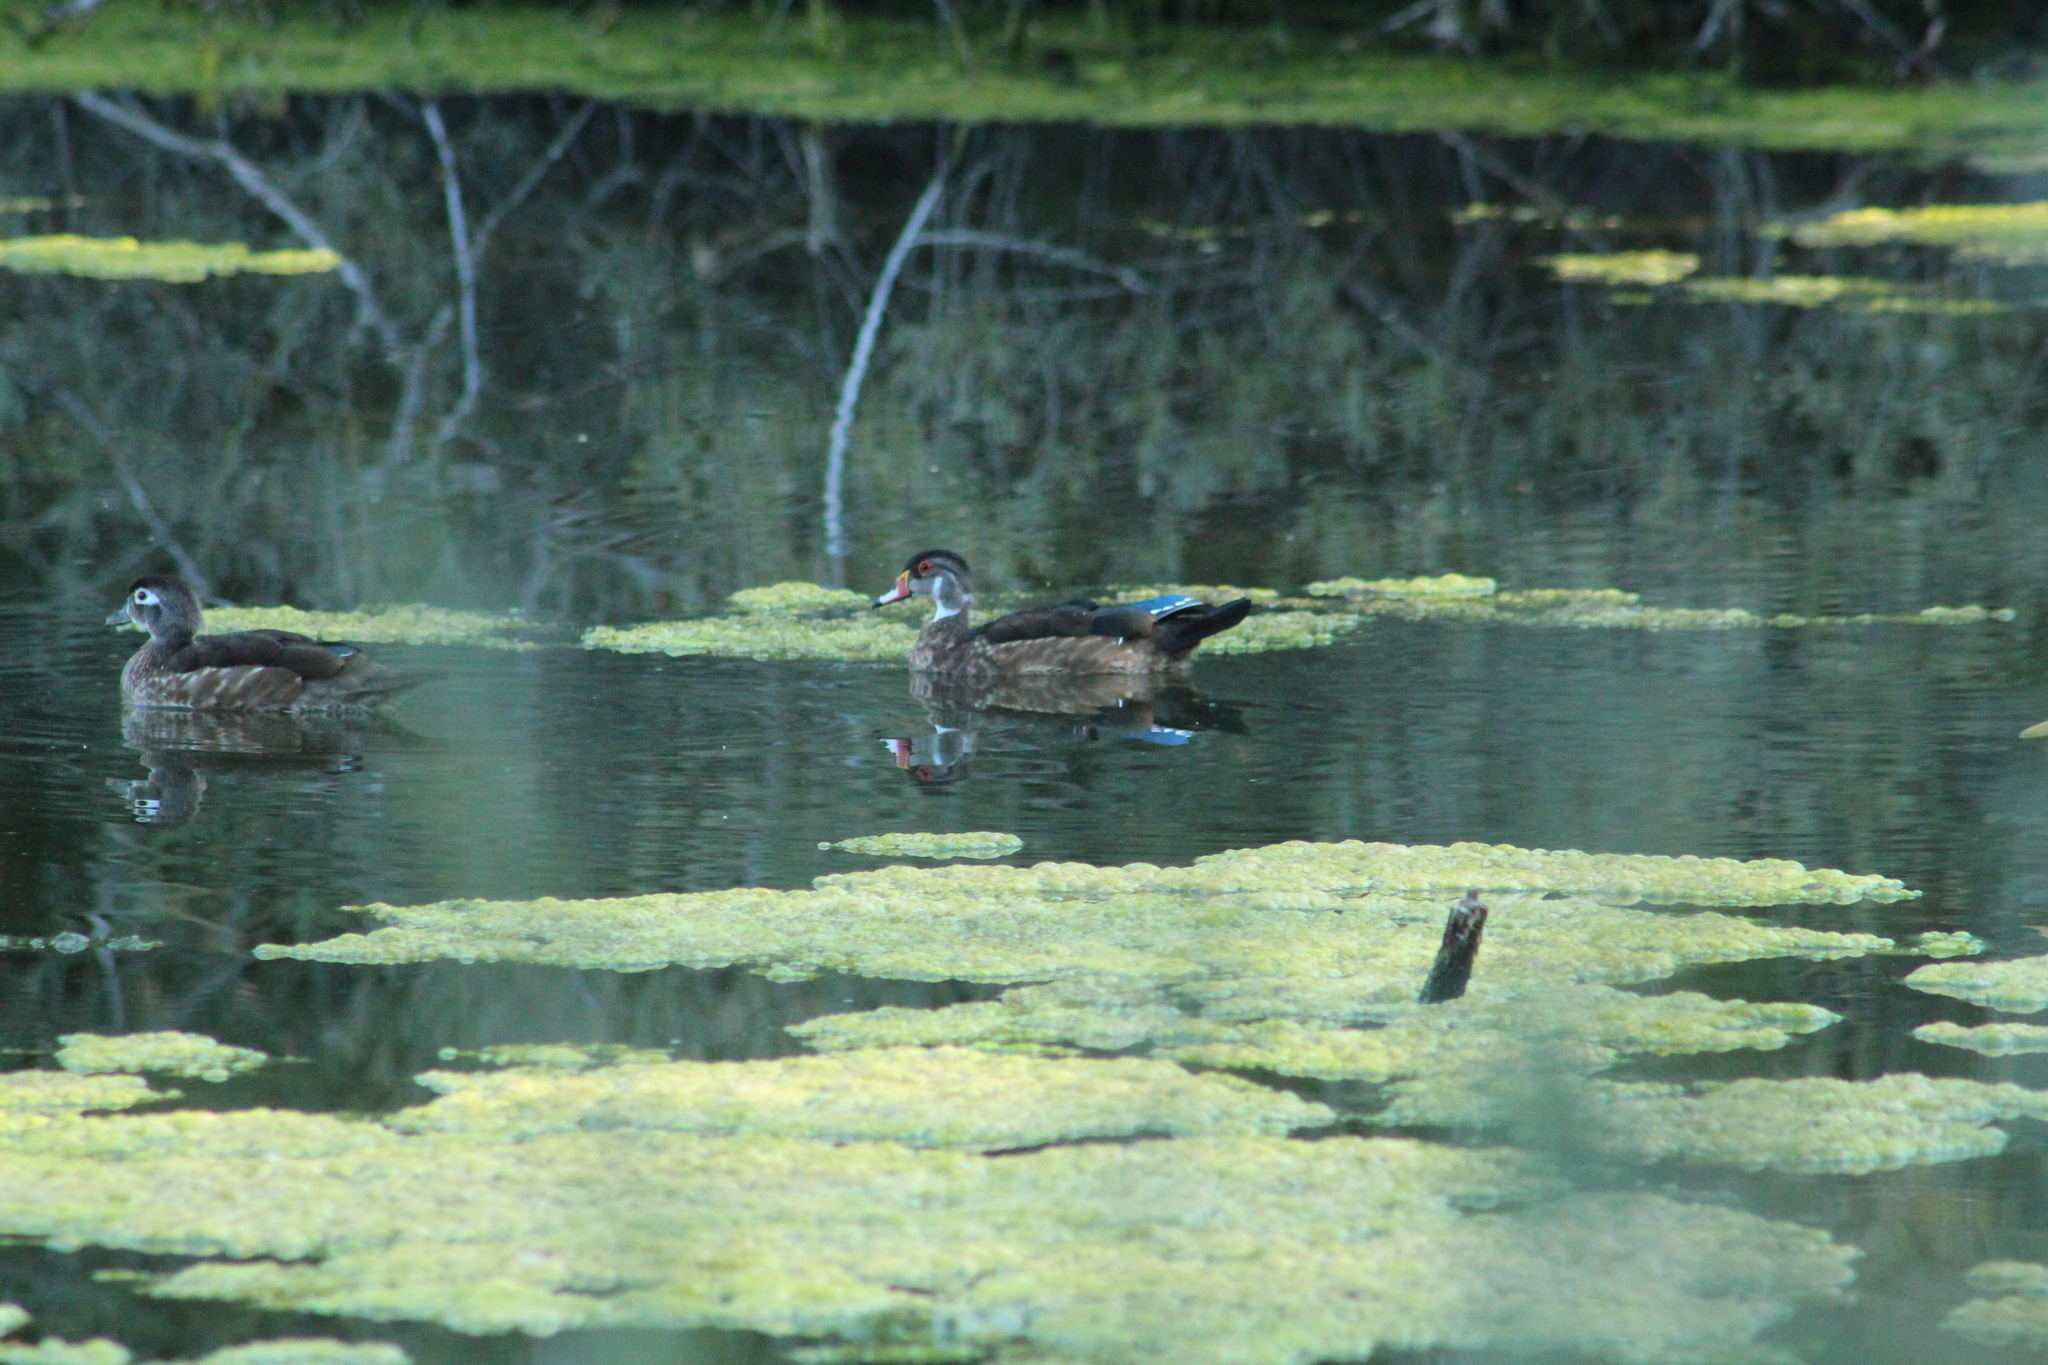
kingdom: Animalia
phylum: Chordata
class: Aves
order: Anseriformes
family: Anatidae
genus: Aix
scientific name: Aix sponsa
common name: Wood duck
